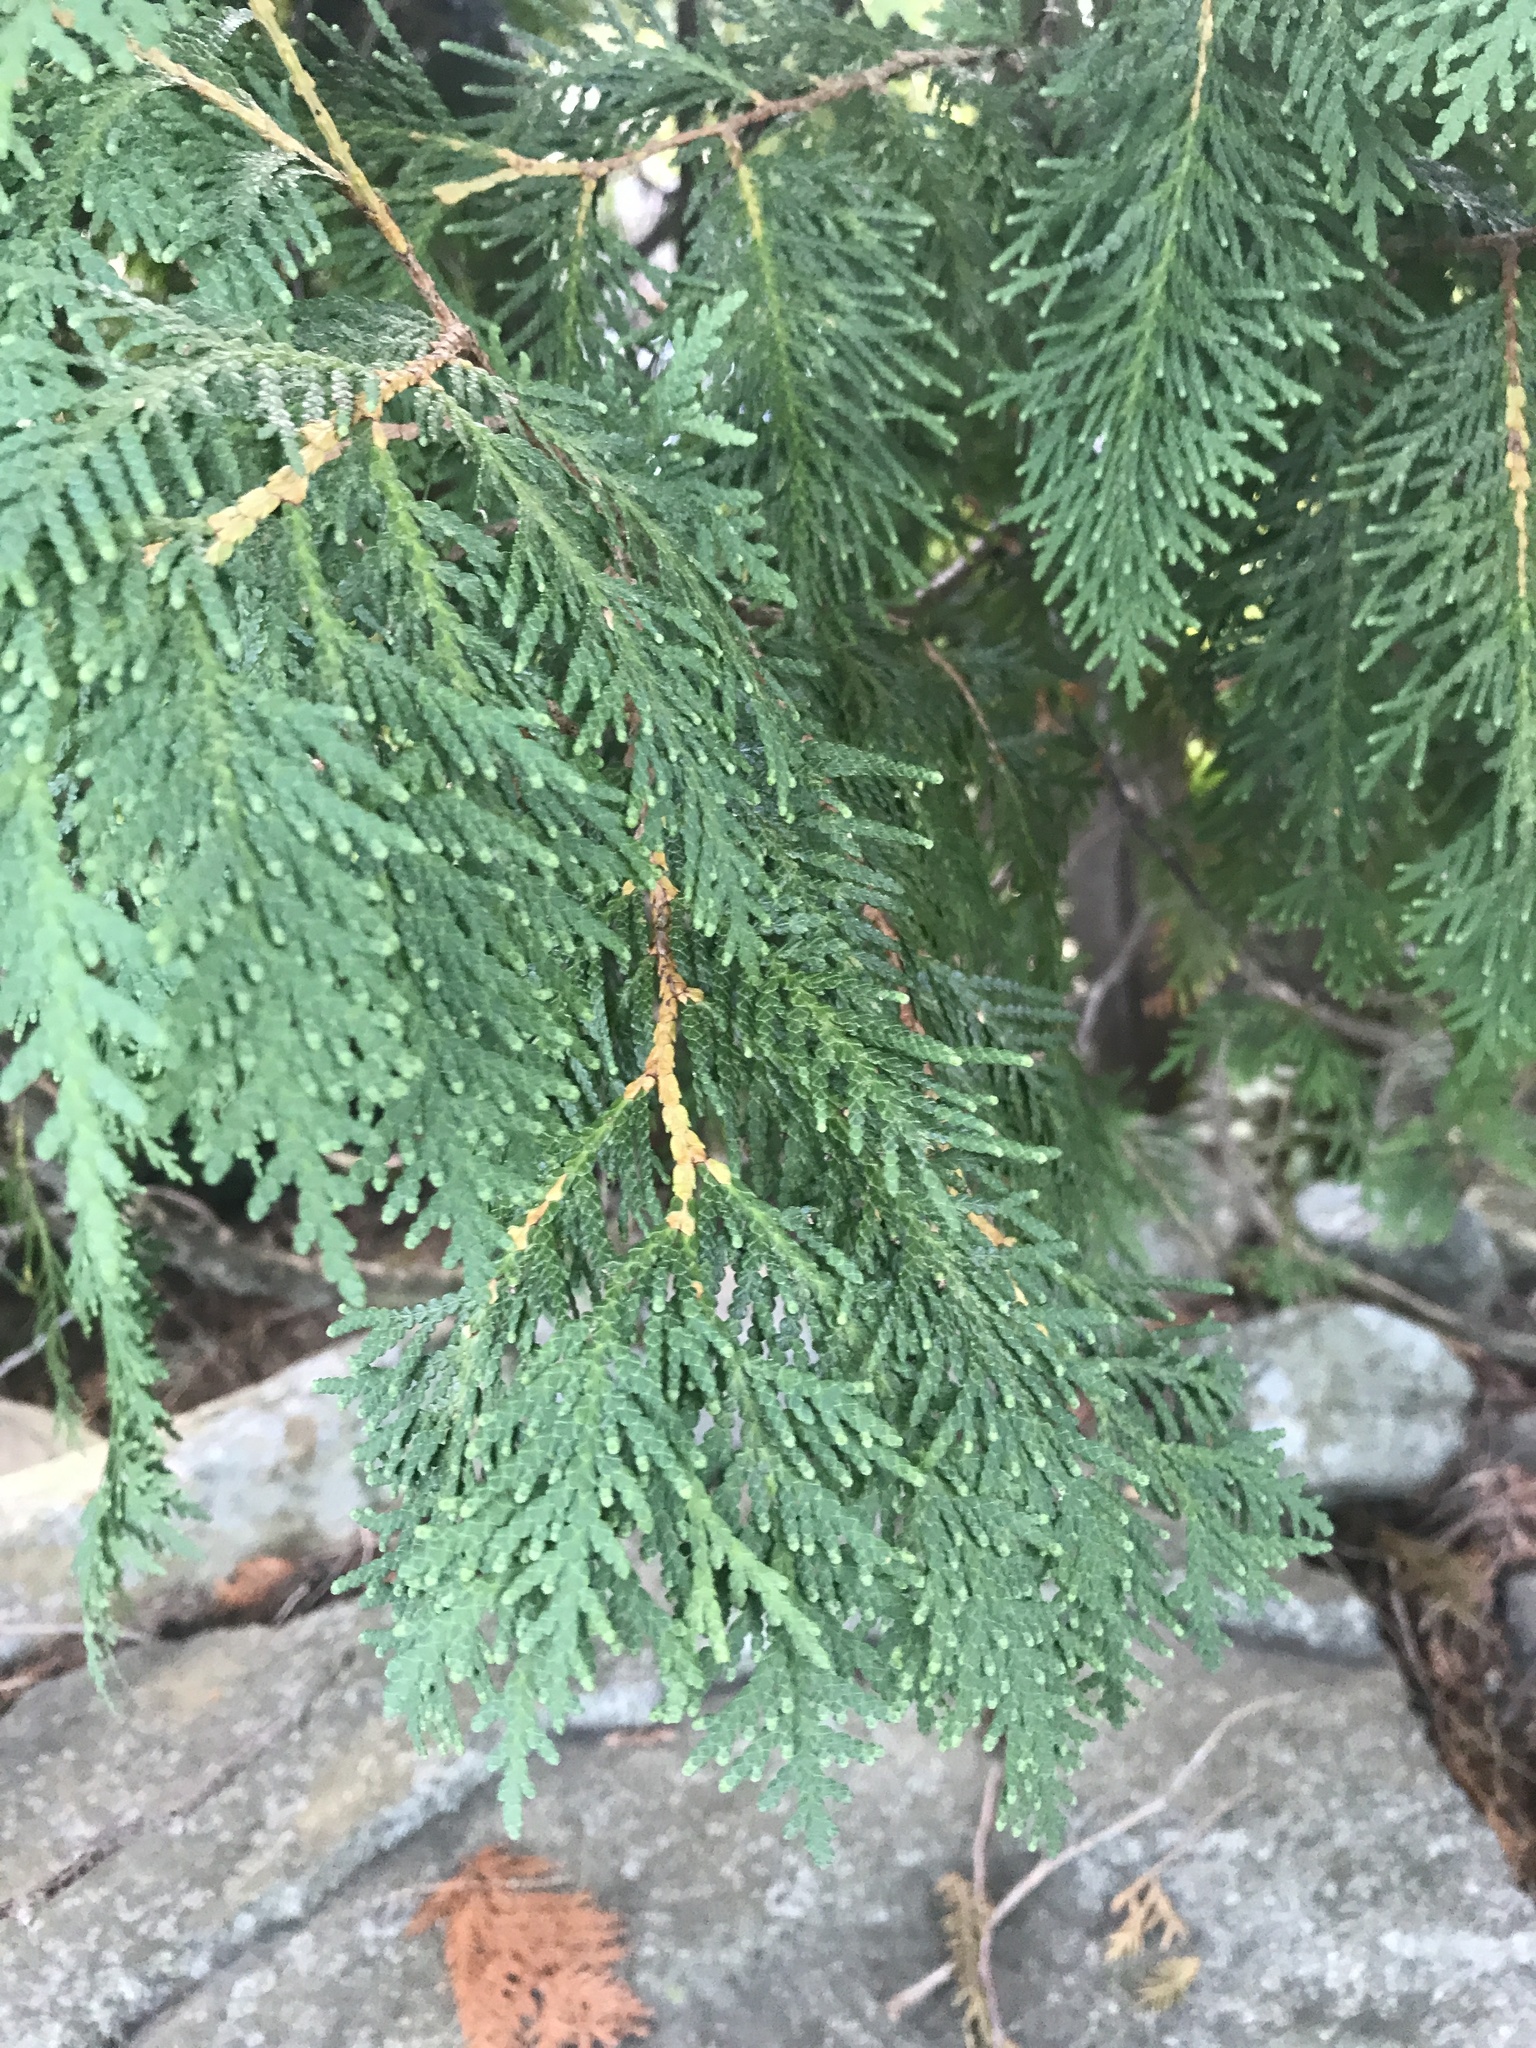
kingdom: Plantae
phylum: Tracheophyta
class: Pinopsida
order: Pinales
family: Cupressaceae
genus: Thuja
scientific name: Thuja occidentalis
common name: Northern white-cedar
